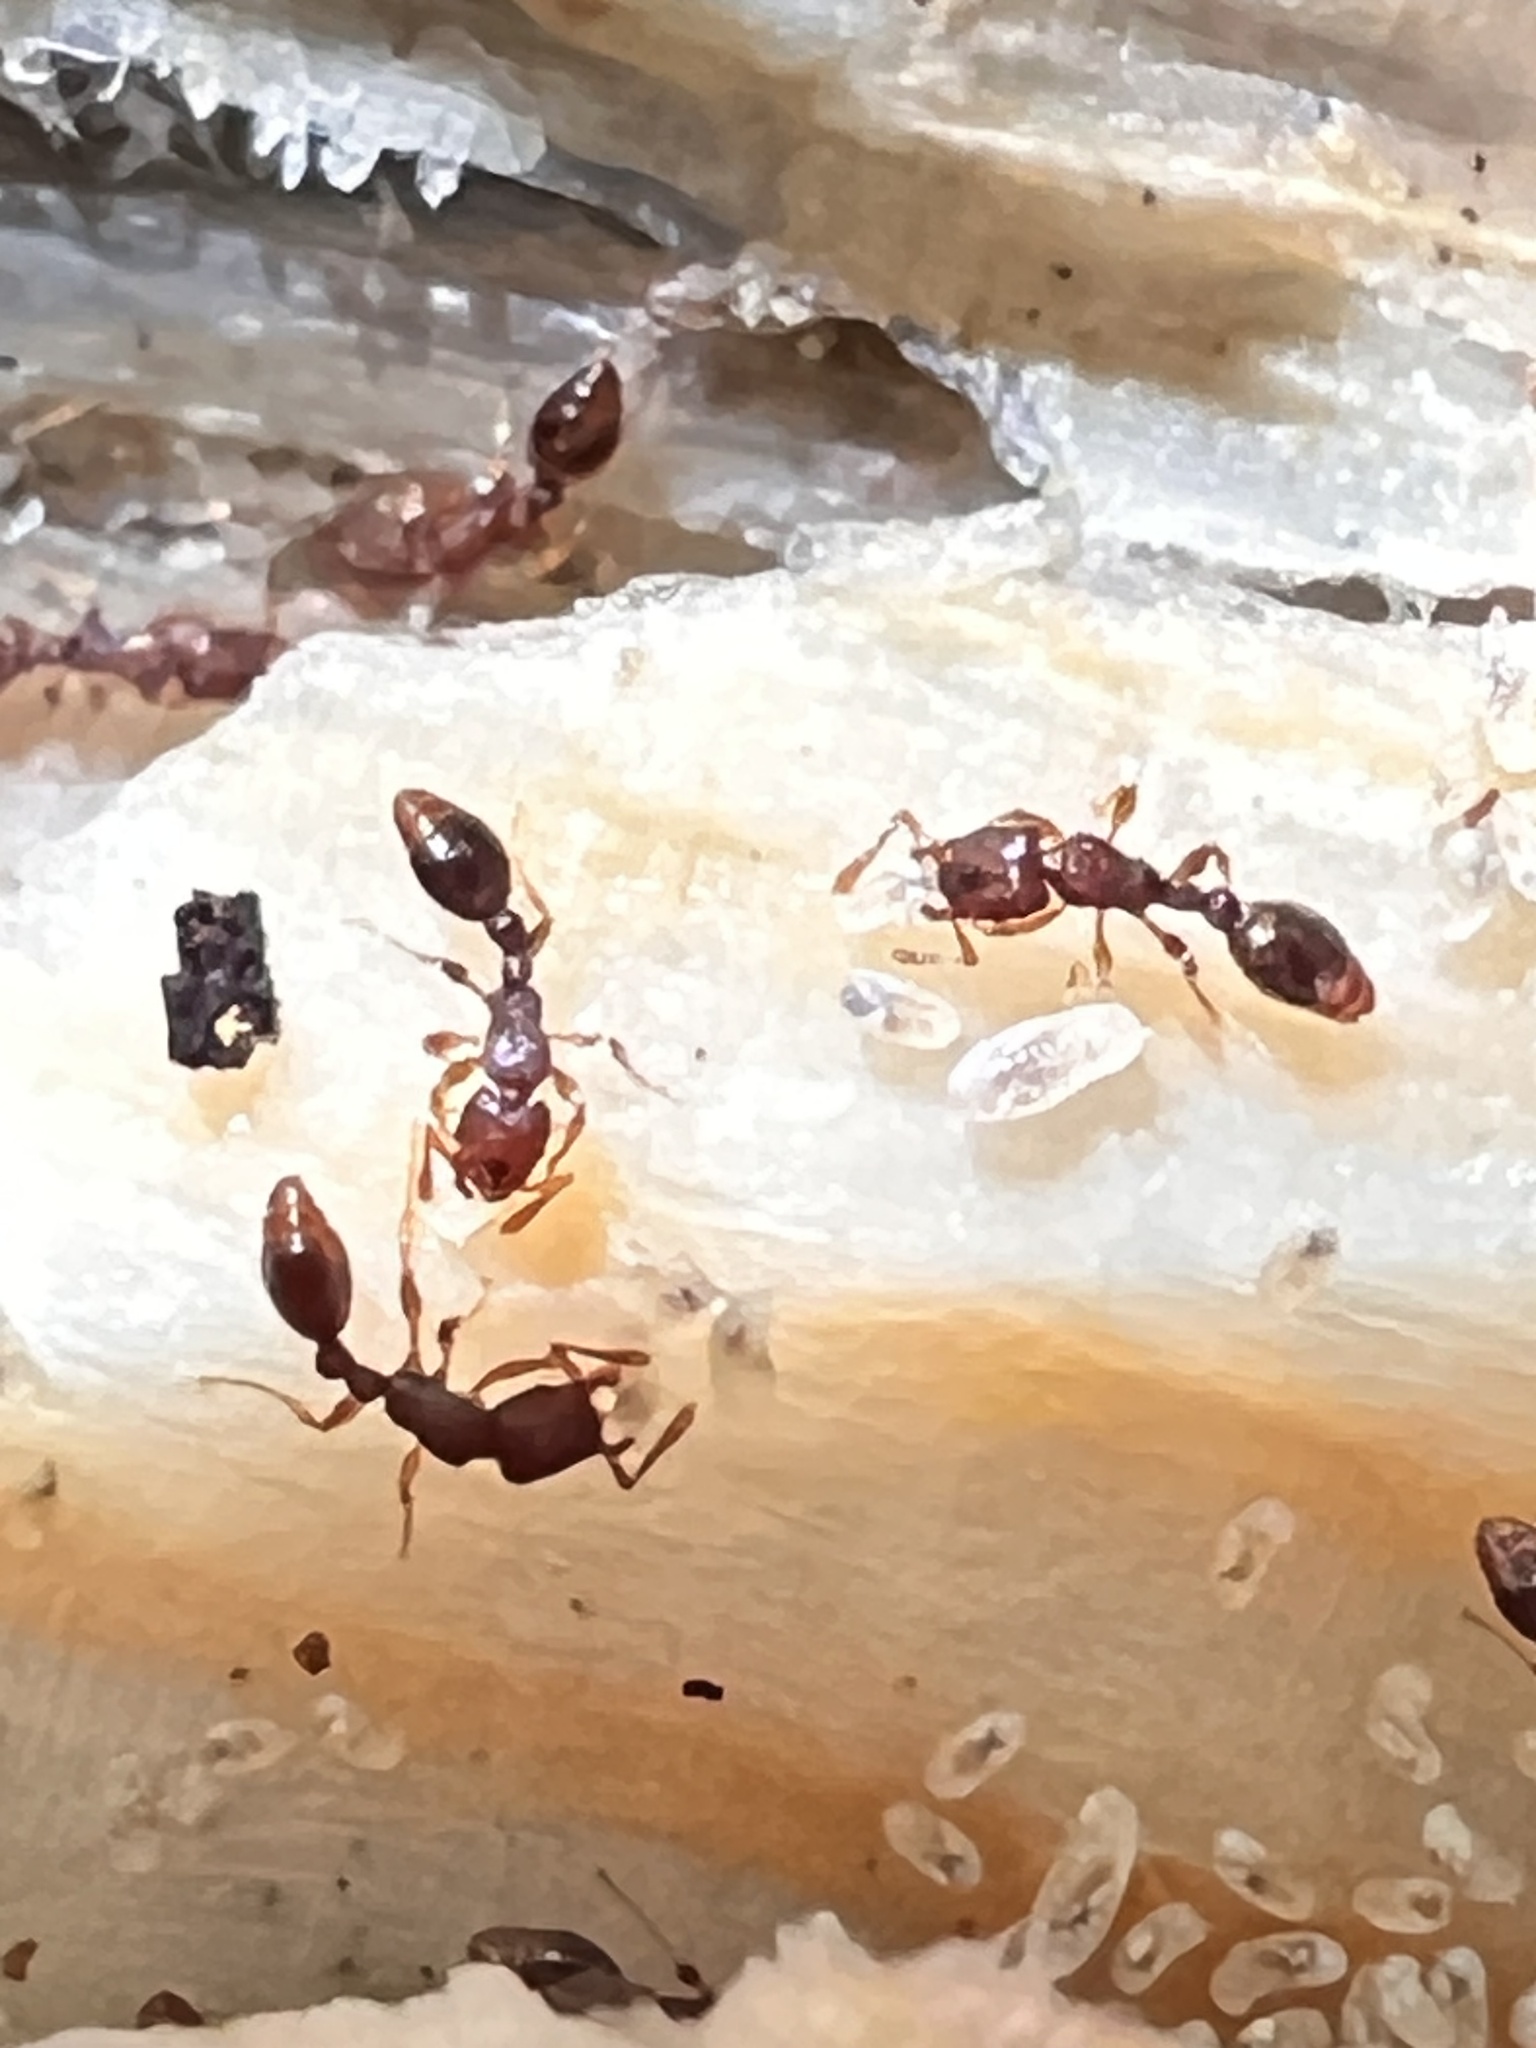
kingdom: Animalia
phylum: Arthropoda
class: Insecta
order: Hymenoptera
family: Formicidae
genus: Vollenhovia
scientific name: Vollenhovia emeryi
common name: Ant
